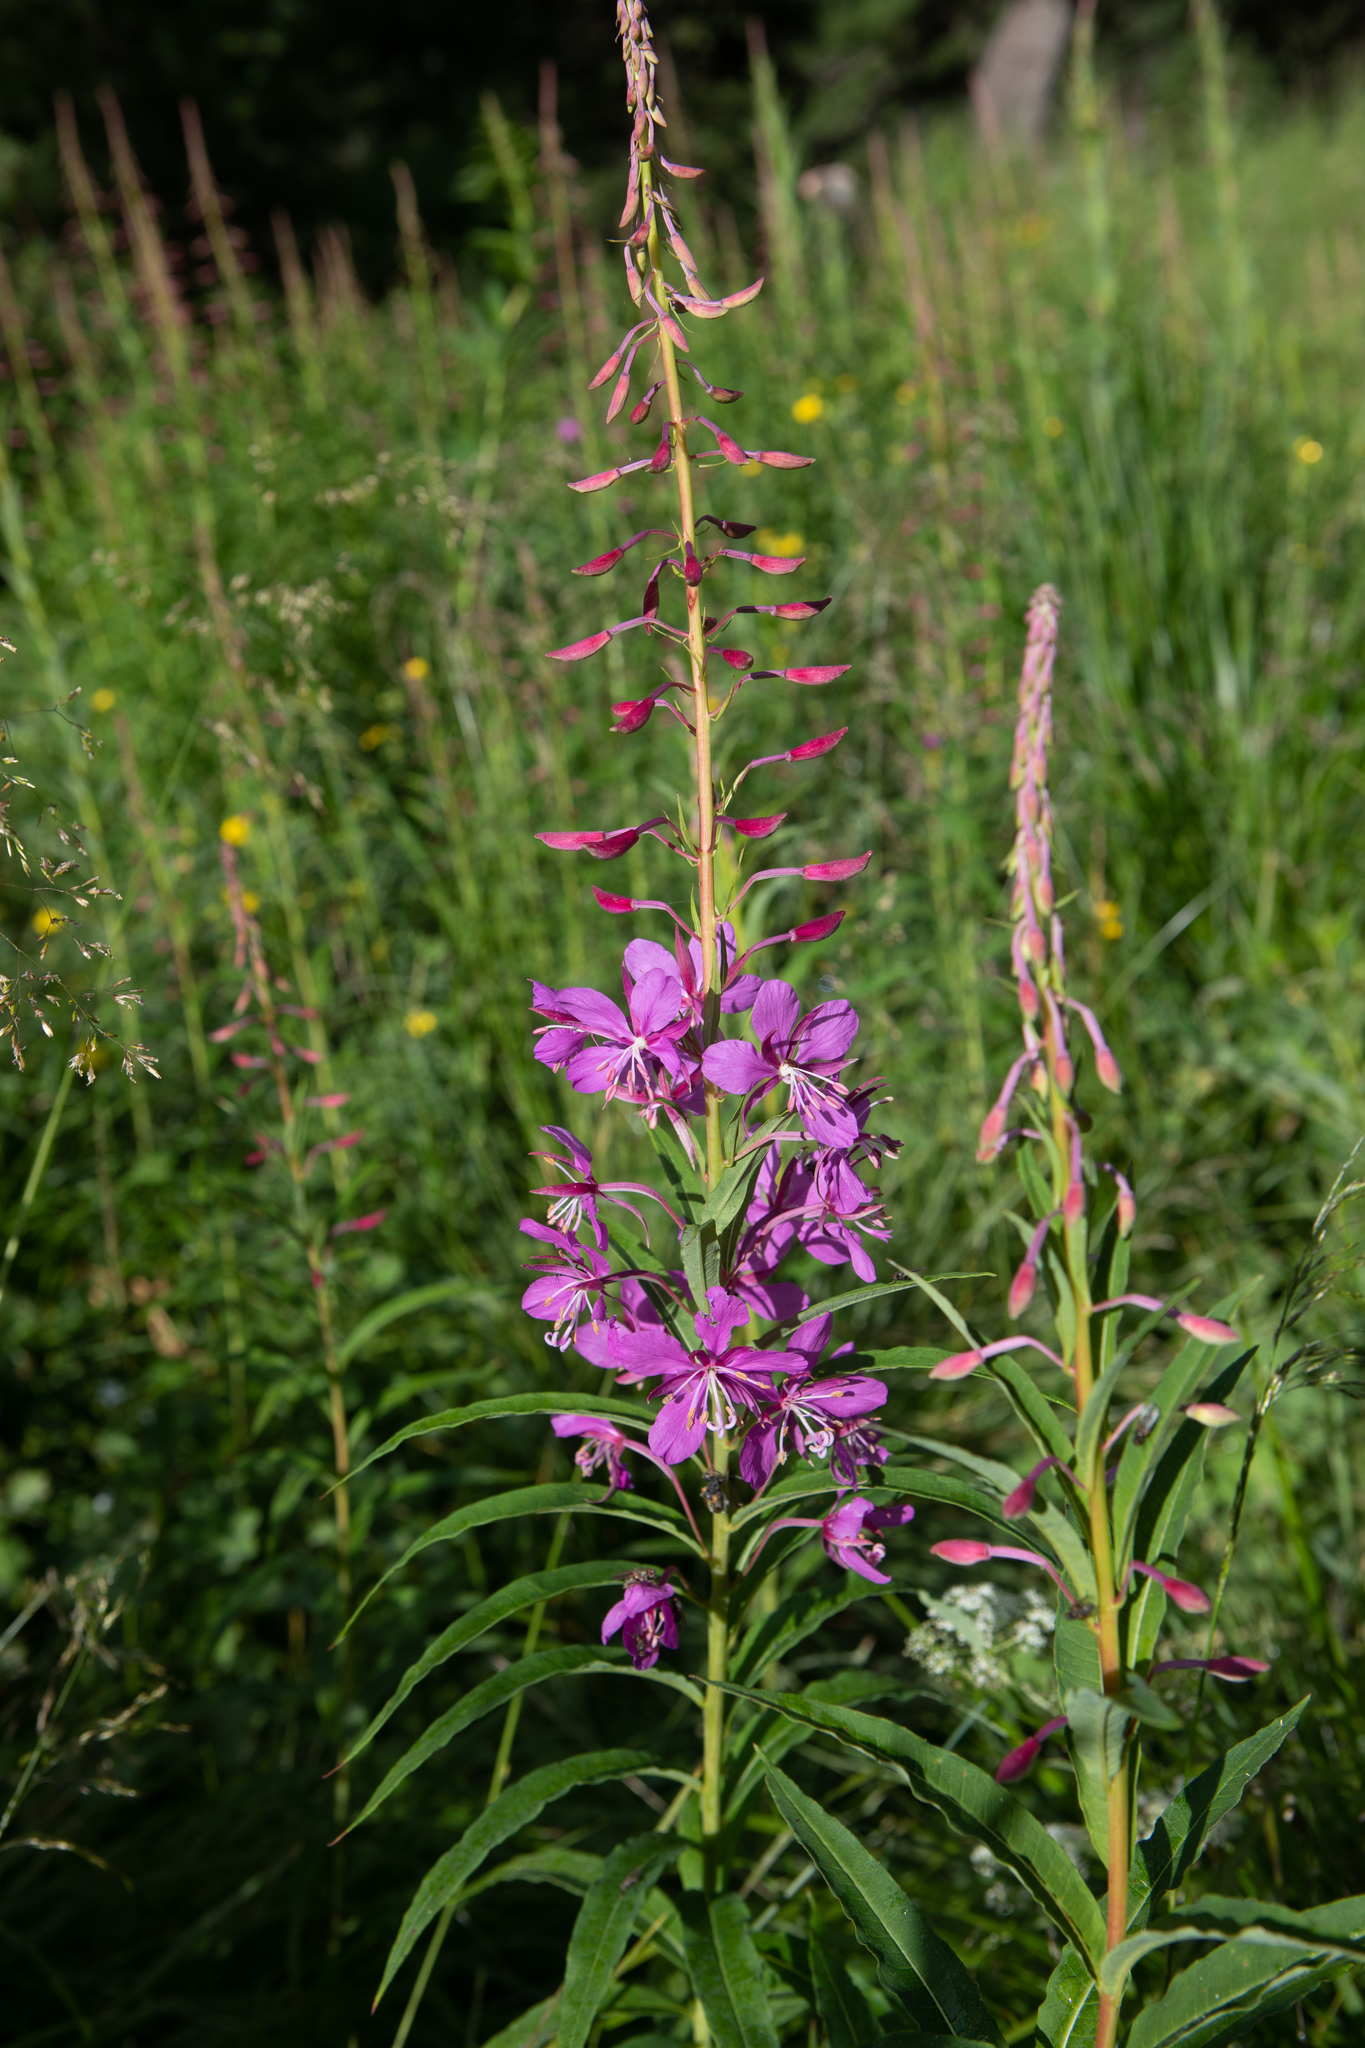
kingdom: Plantae
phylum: Tracheophyta
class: Magnoliopsida
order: Myrtales
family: Onagraceae
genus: Chamaenerion
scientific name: Chamaenerion angustifolium
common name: Fireweed
